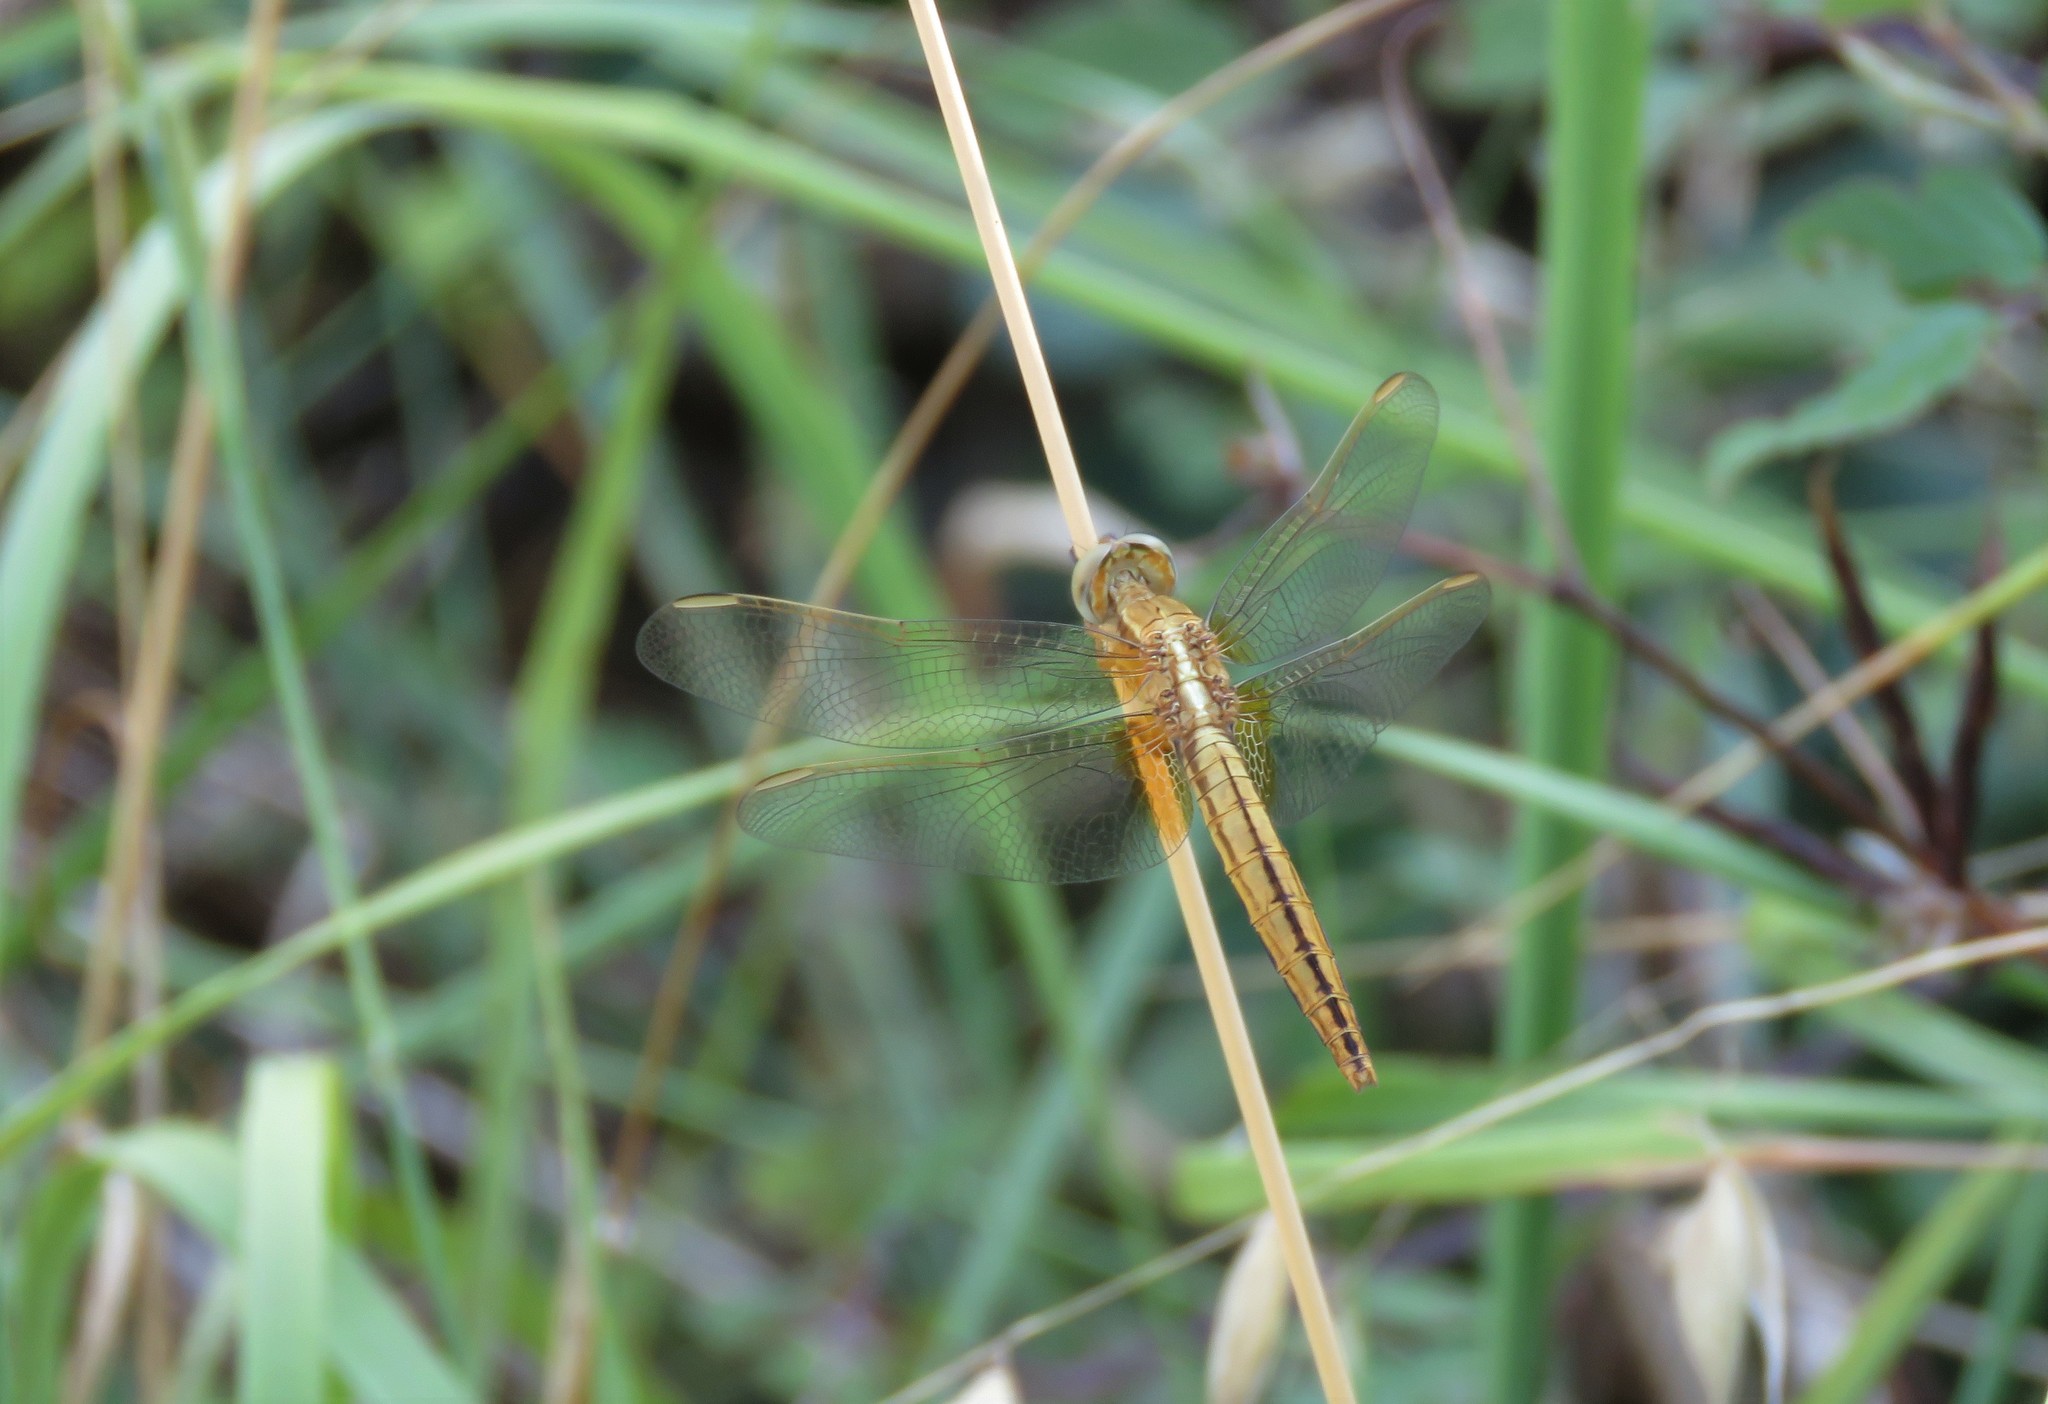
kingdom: Animalia
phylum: Arthropoda
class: Insecta
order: Odonata
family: Libellulidae
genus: Crocothemis
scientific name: Crocothemis erythraea
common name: Scarlet dragonfly
